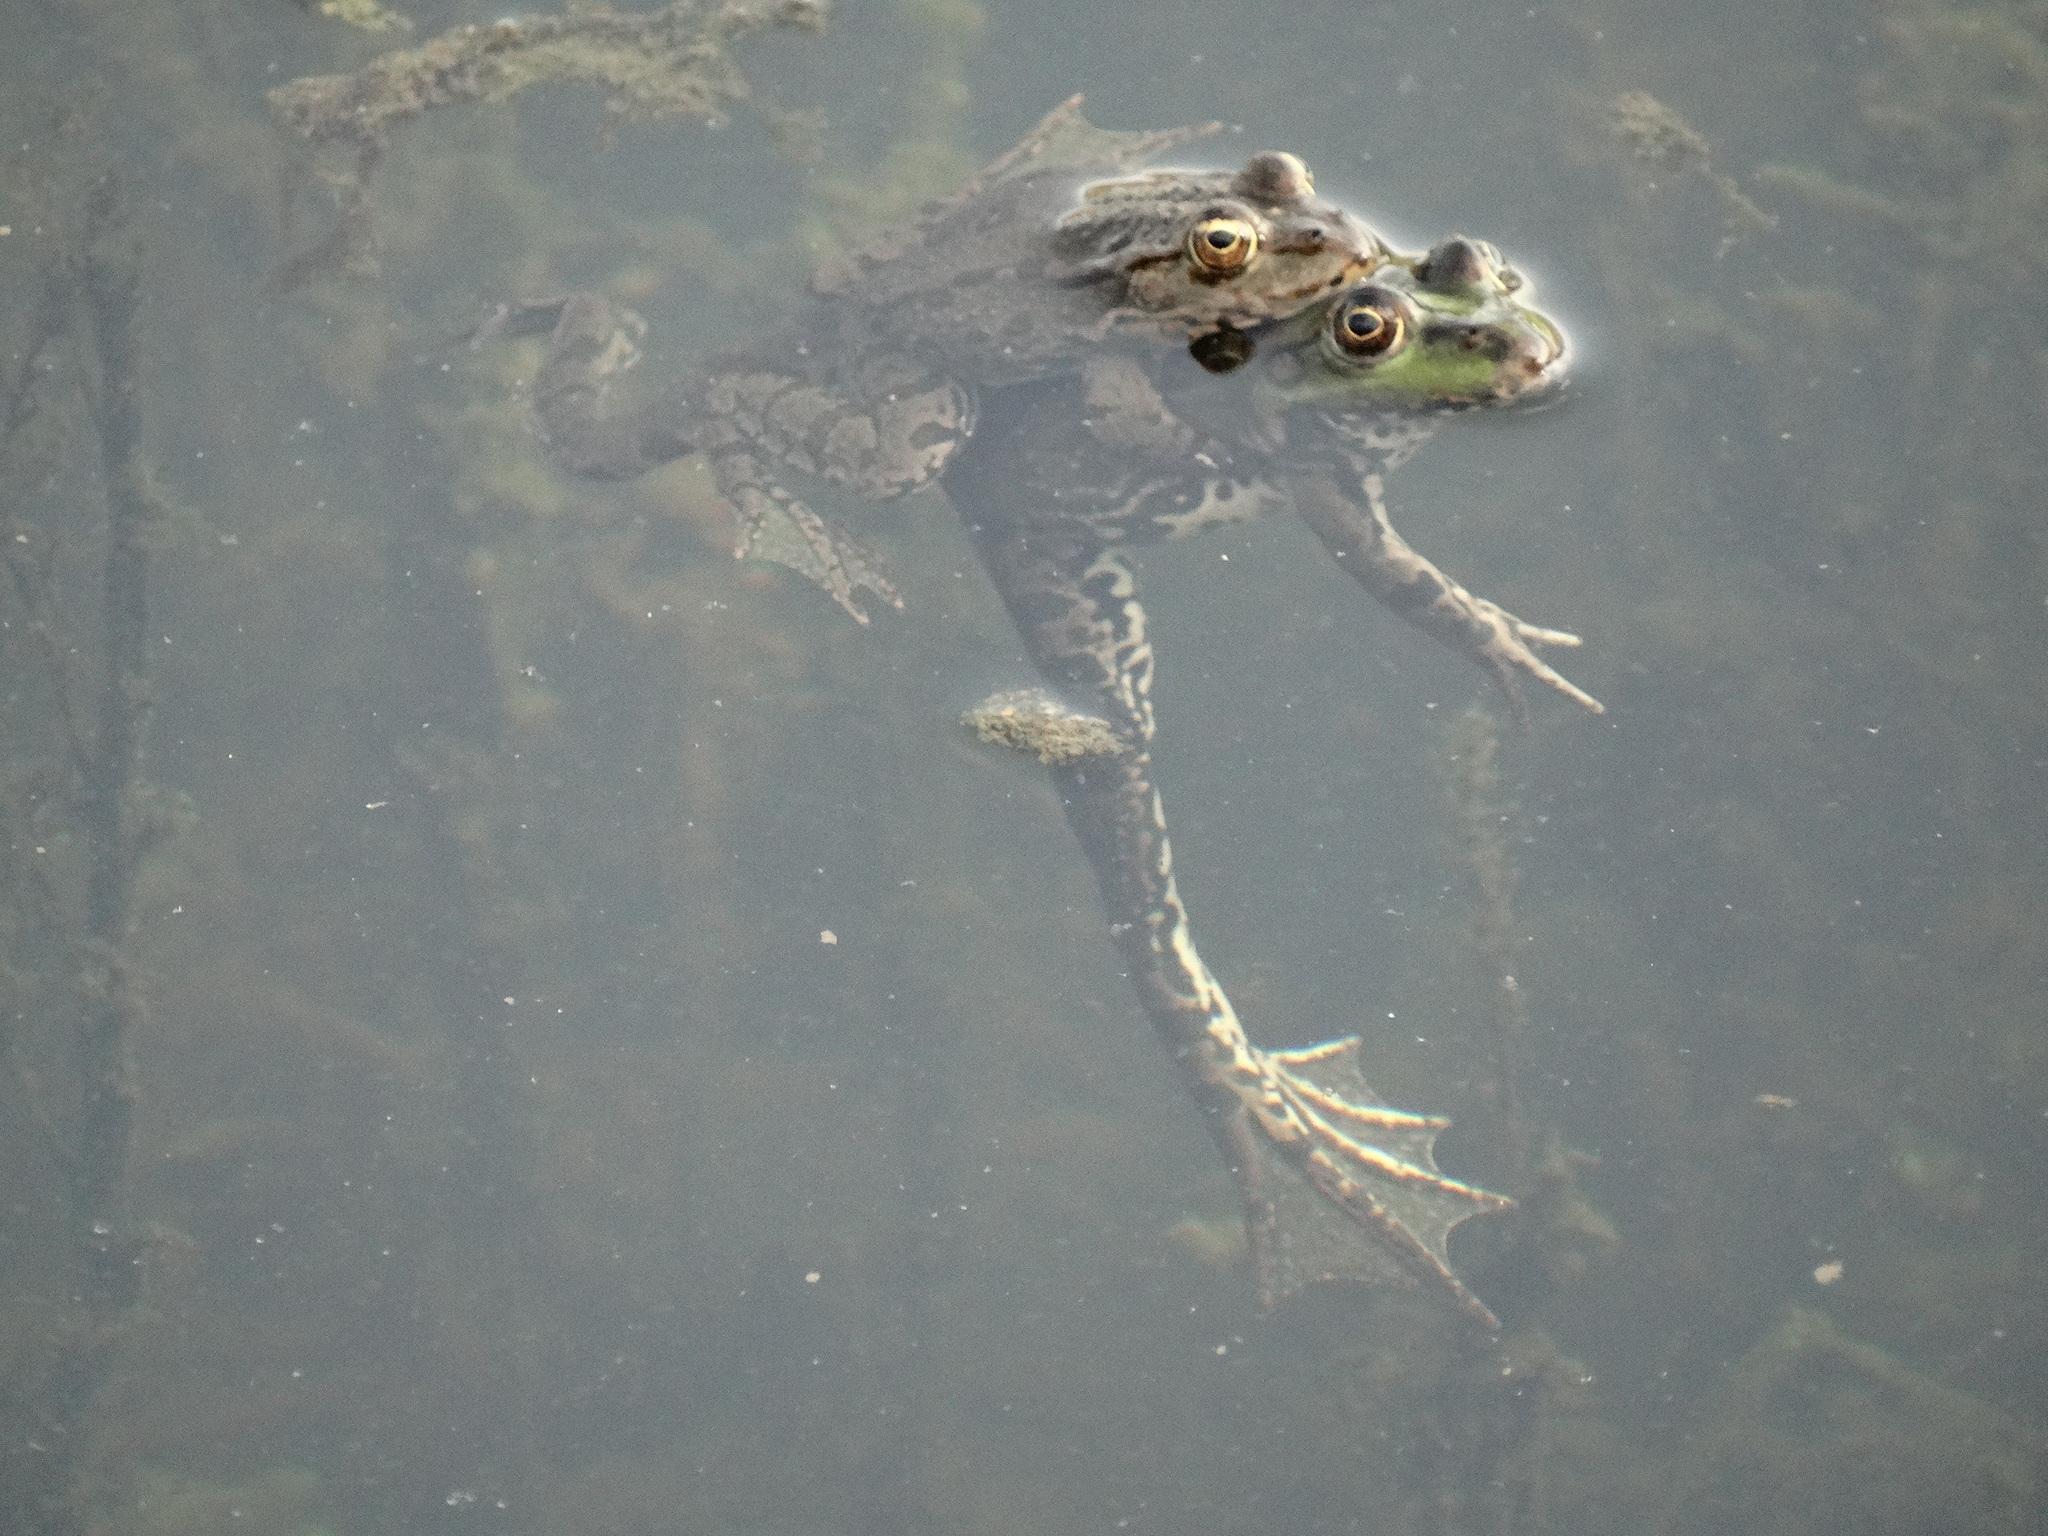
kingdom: Animalia
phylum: Chordata
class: Amphibia
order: Anura
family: Ranidae
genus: Pelophylax
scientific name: Pelophylax
